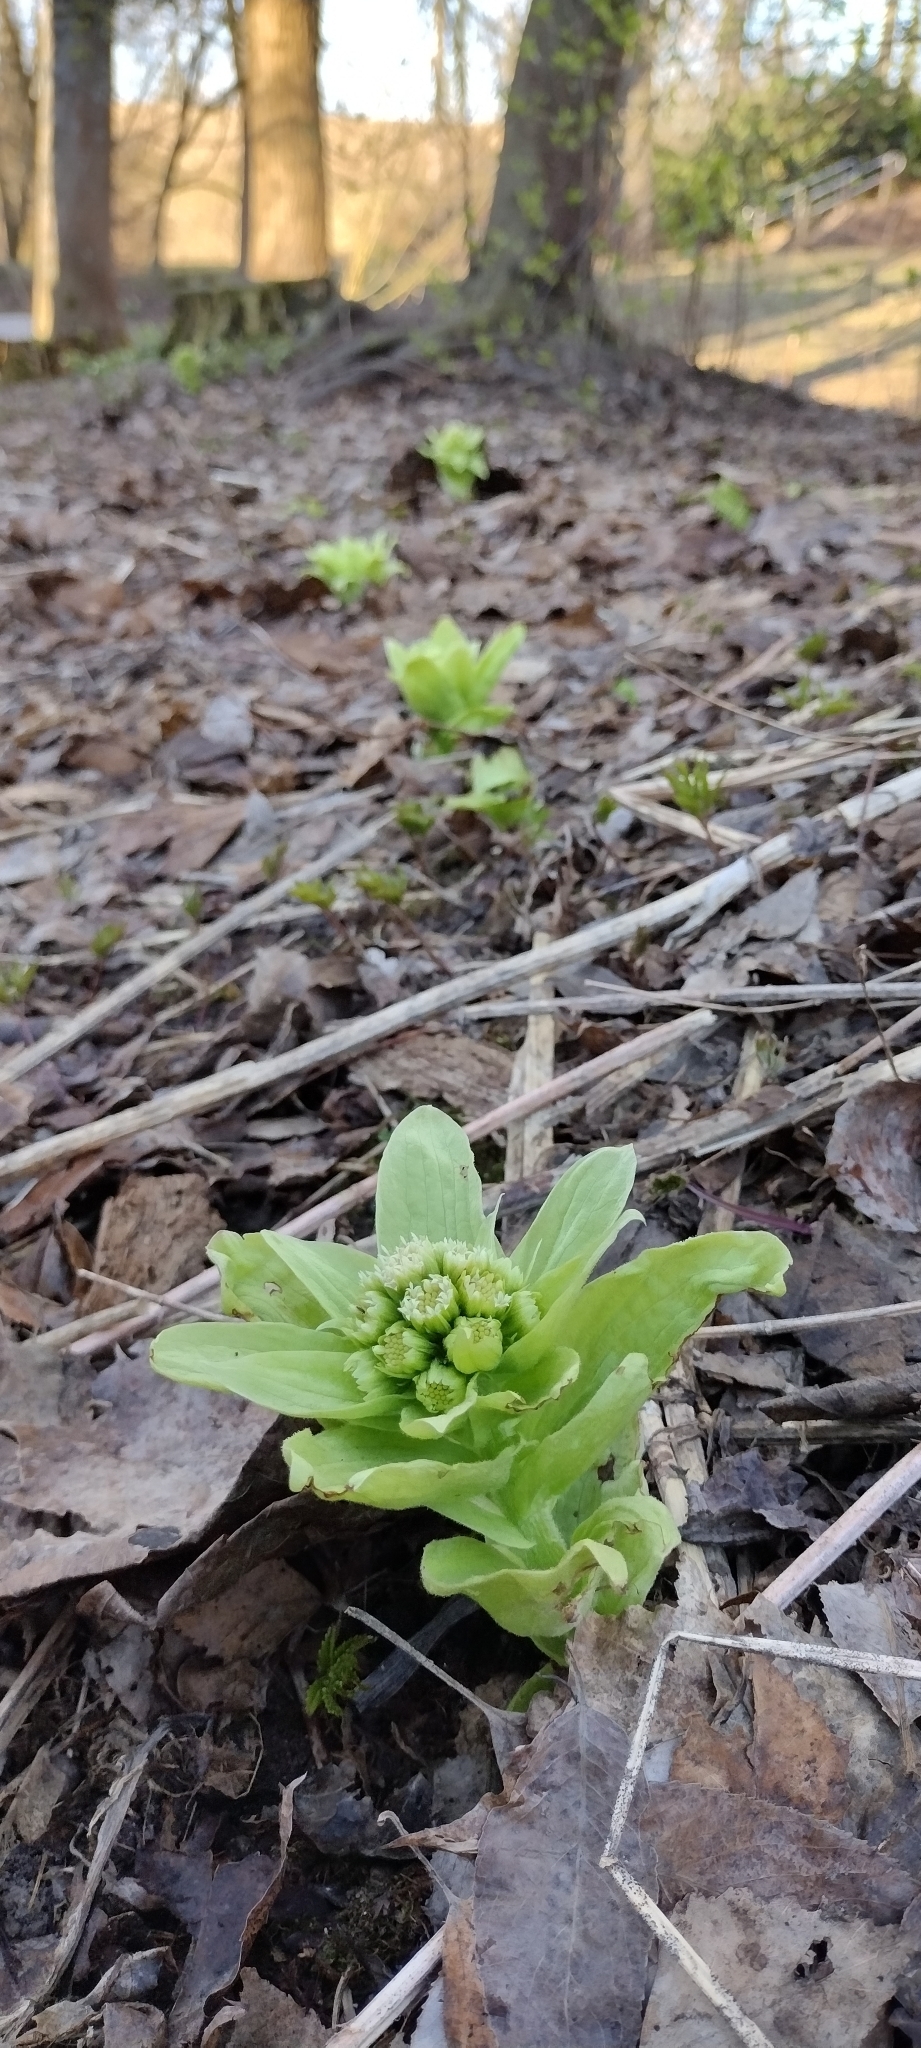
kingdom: Plantae
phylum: Tracheophyta
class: Magnoliopsida
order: Asterales
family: Asteraceae
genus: Petasites
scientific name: Petasites japonicus
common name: Giant butterbur
